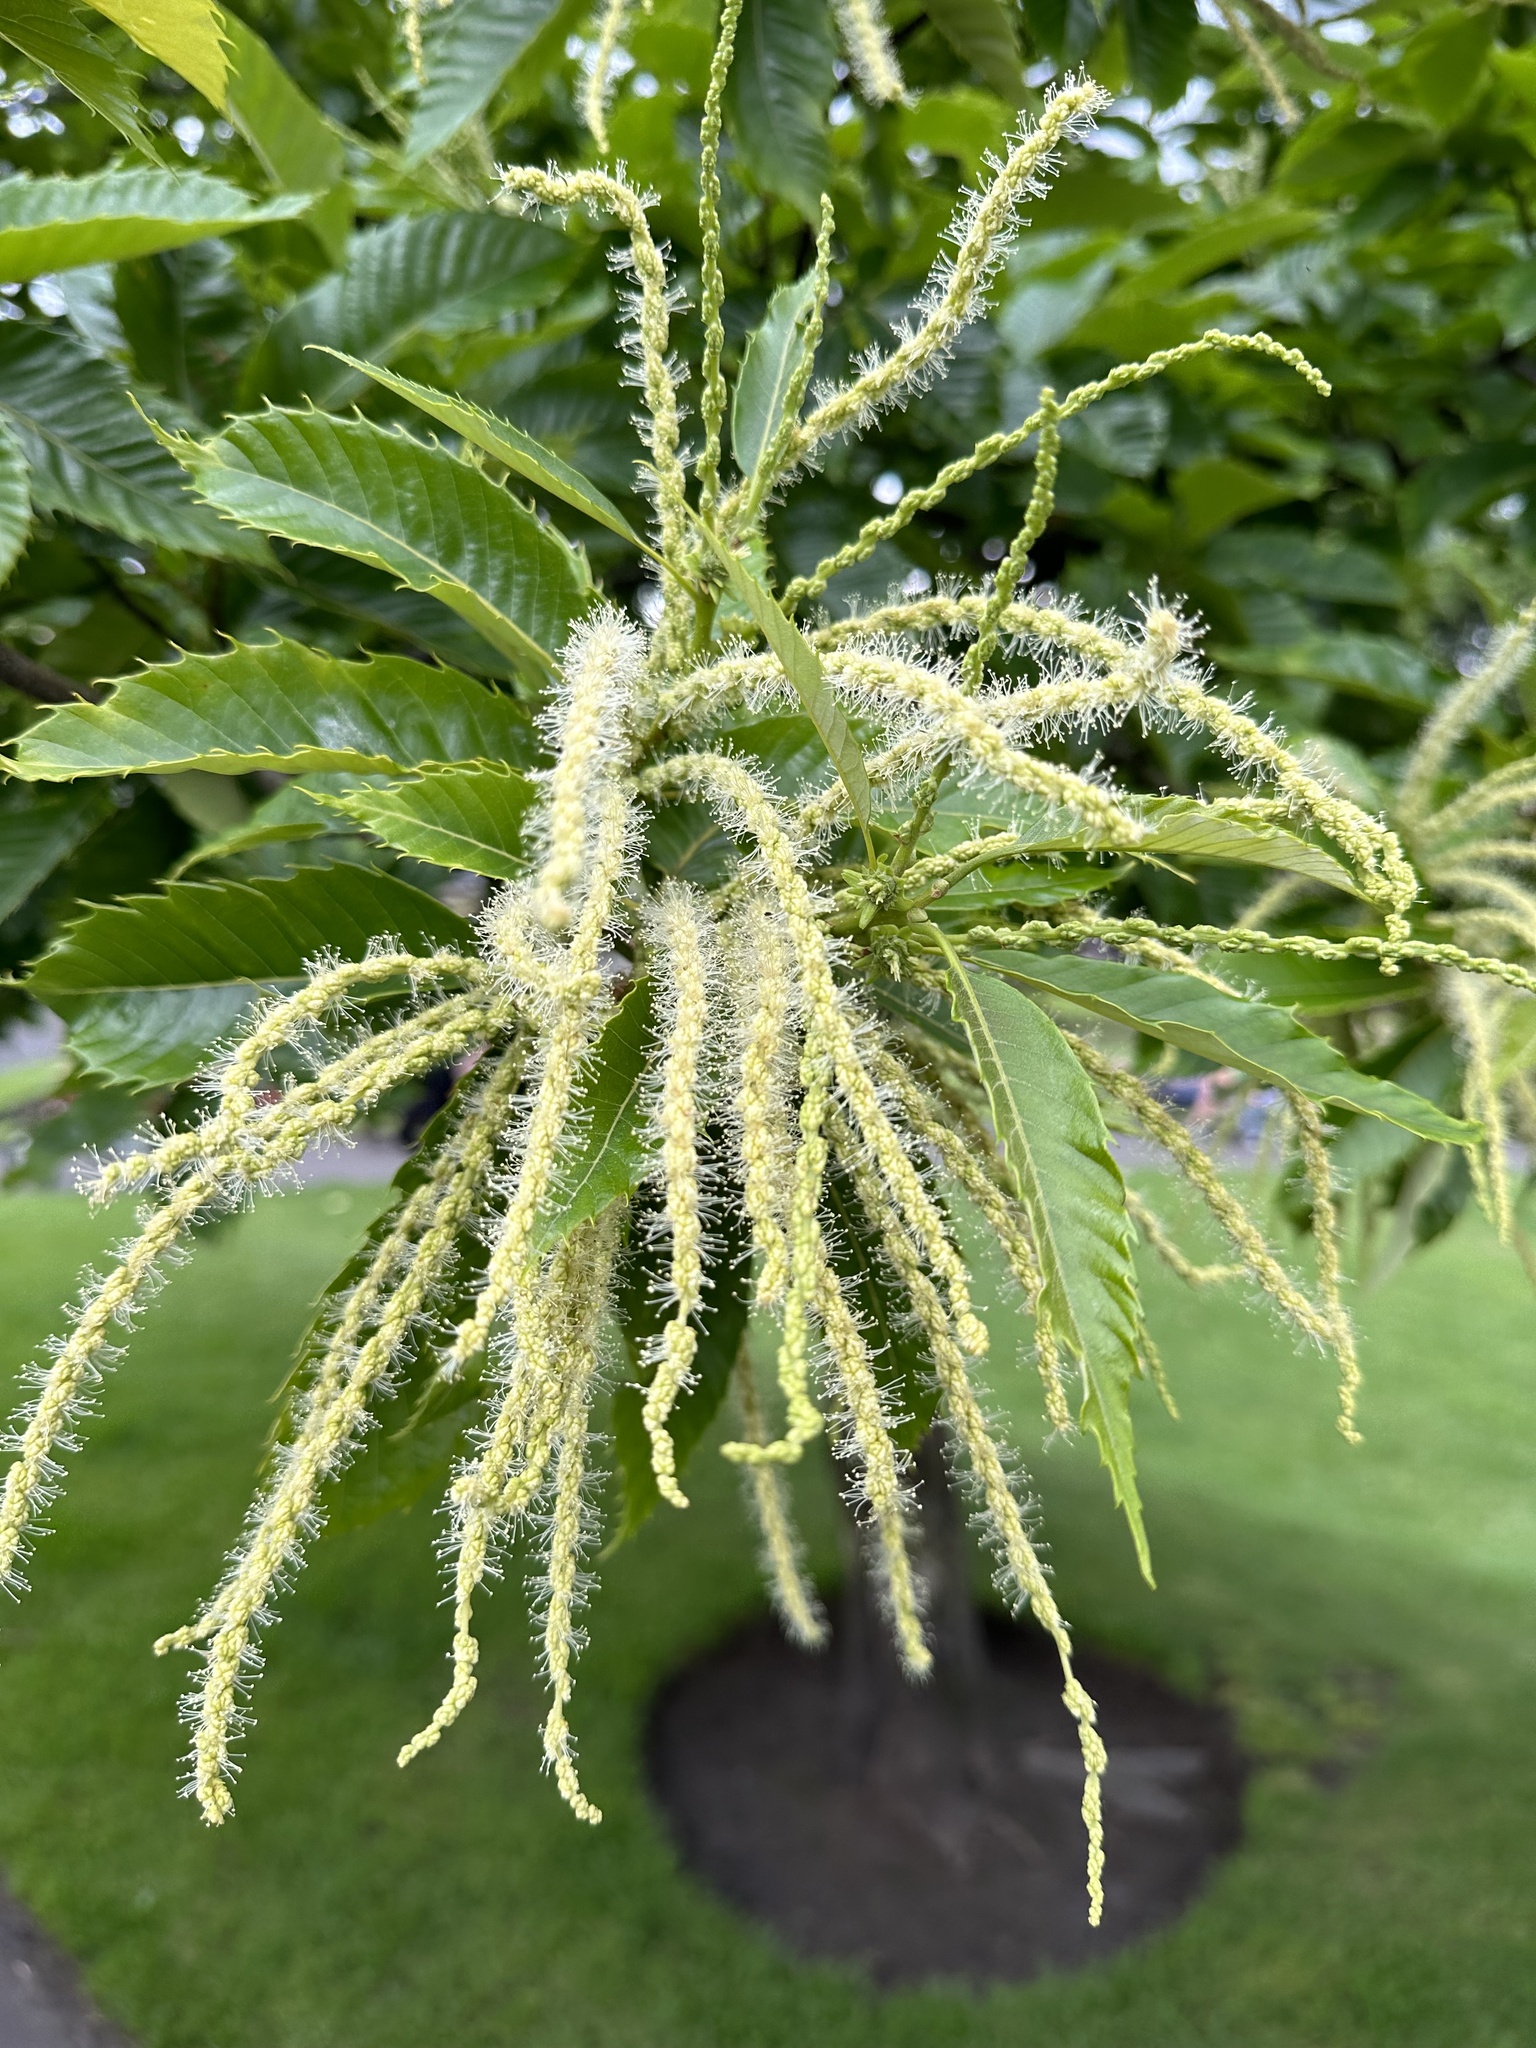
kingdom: Plantae
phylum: Tracheophyta
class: Magnoliopsida
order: Fagales
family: Fagaceae
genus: Castanea
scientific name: Castanea sativa
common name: Sweet chestnut
